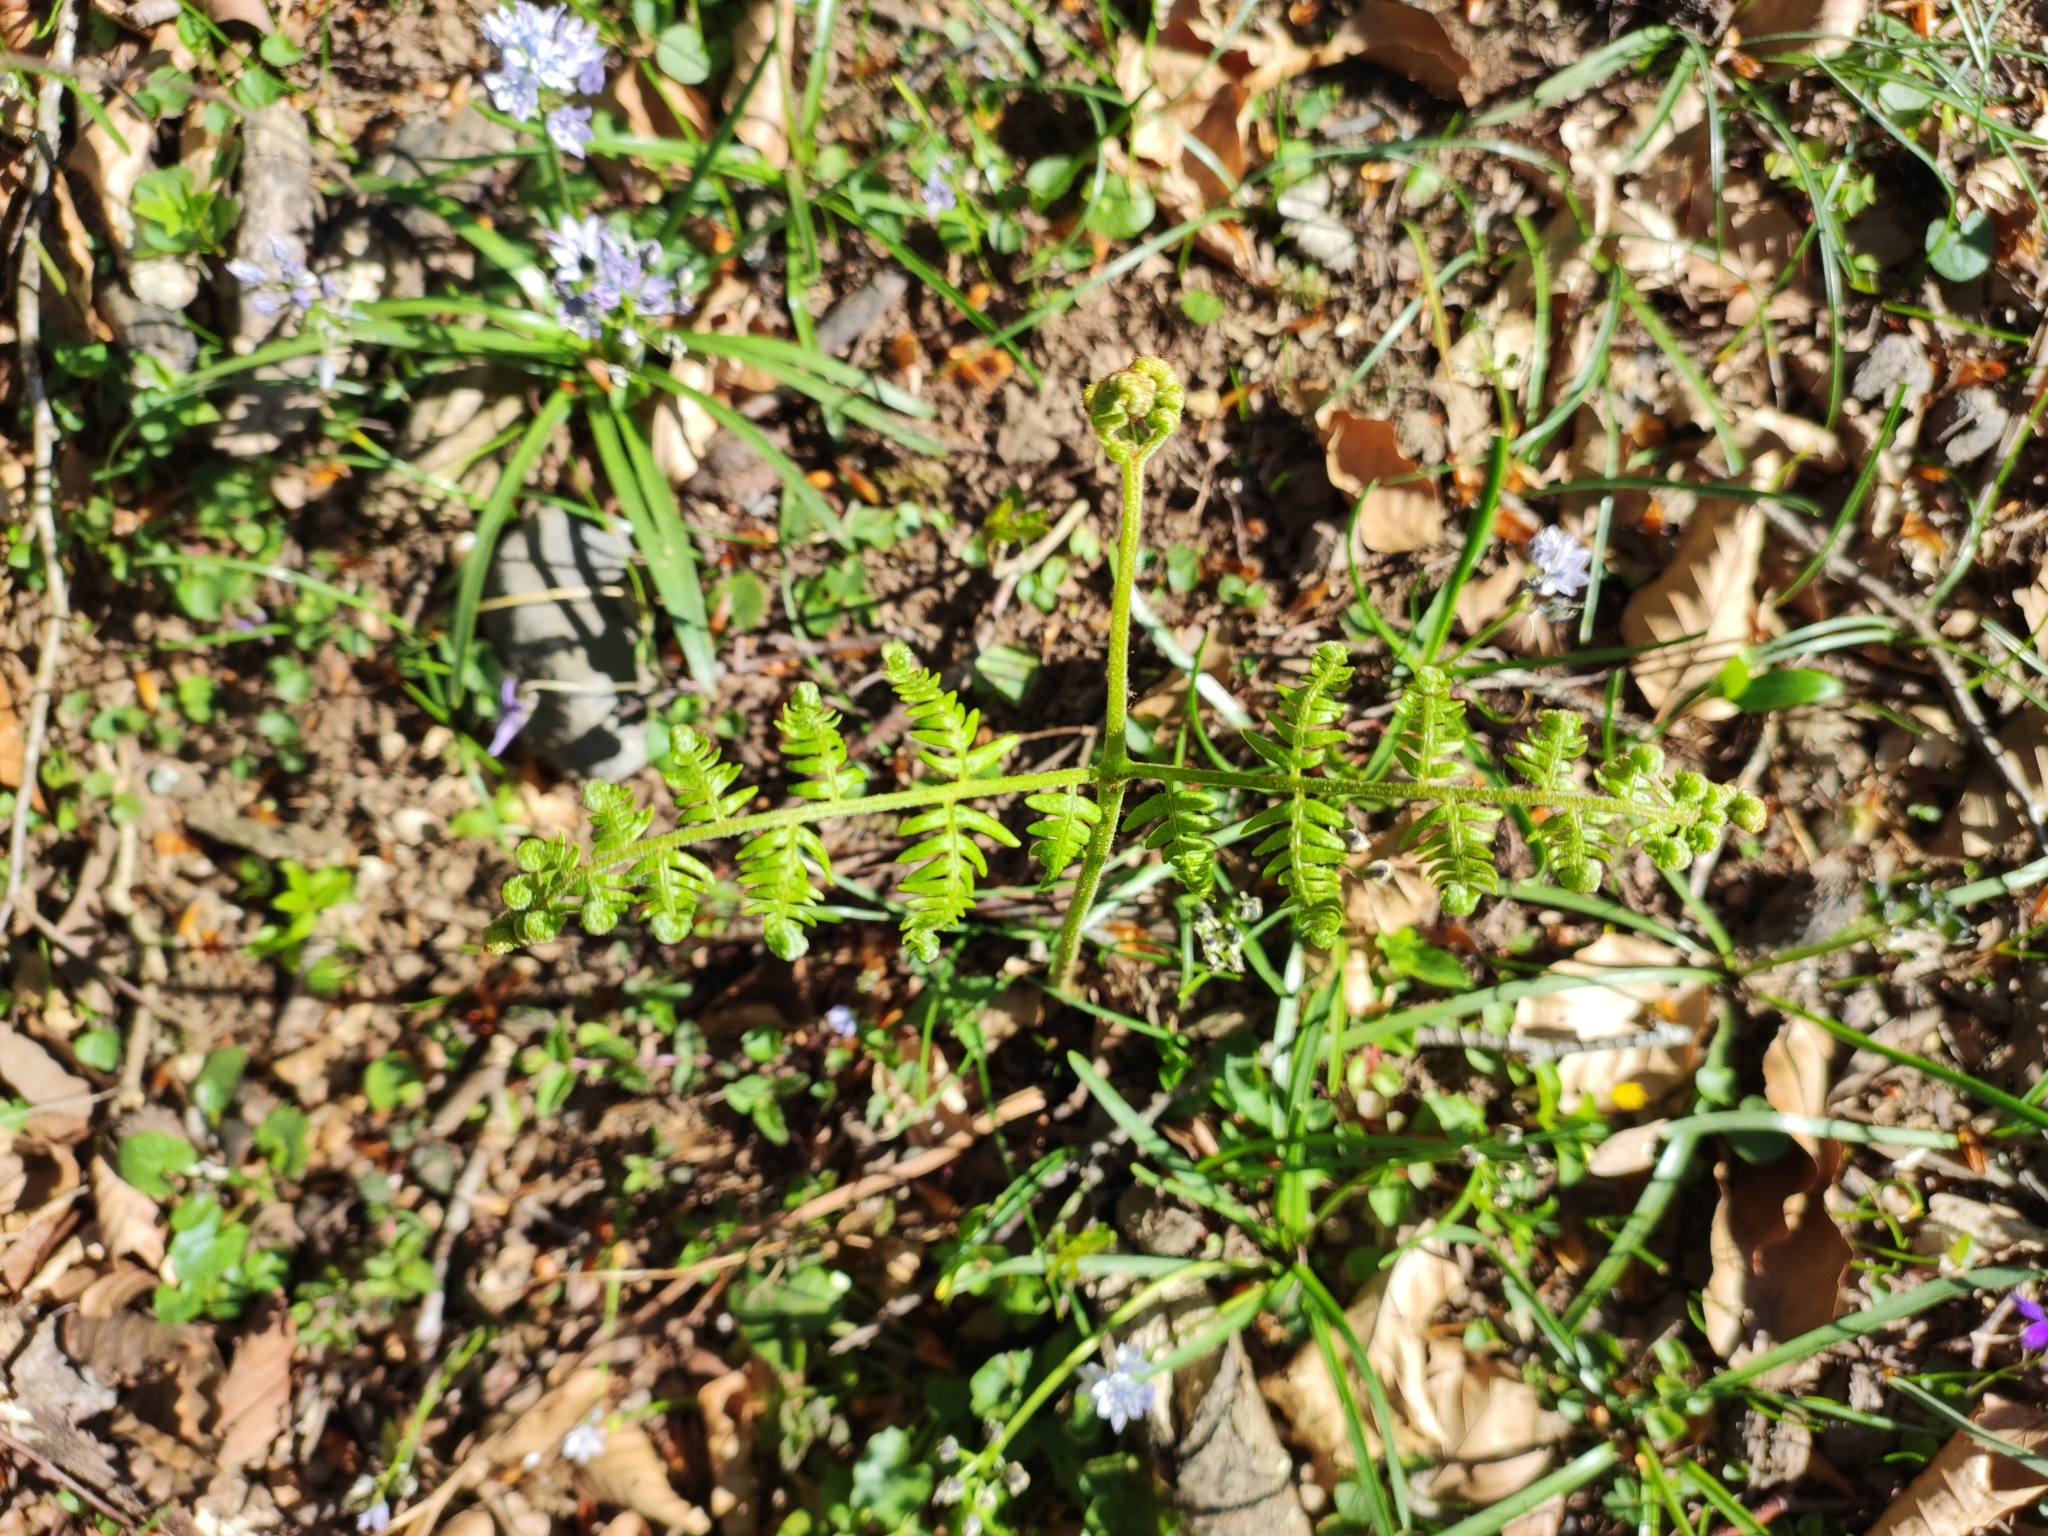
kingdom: Plantae
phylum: Tracheophyta
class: Polypodiopsida
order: Polypodiales
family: Dennstaedtiaceae
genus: Pteridium
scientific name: Pteridium aquilinum
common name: Bracken
